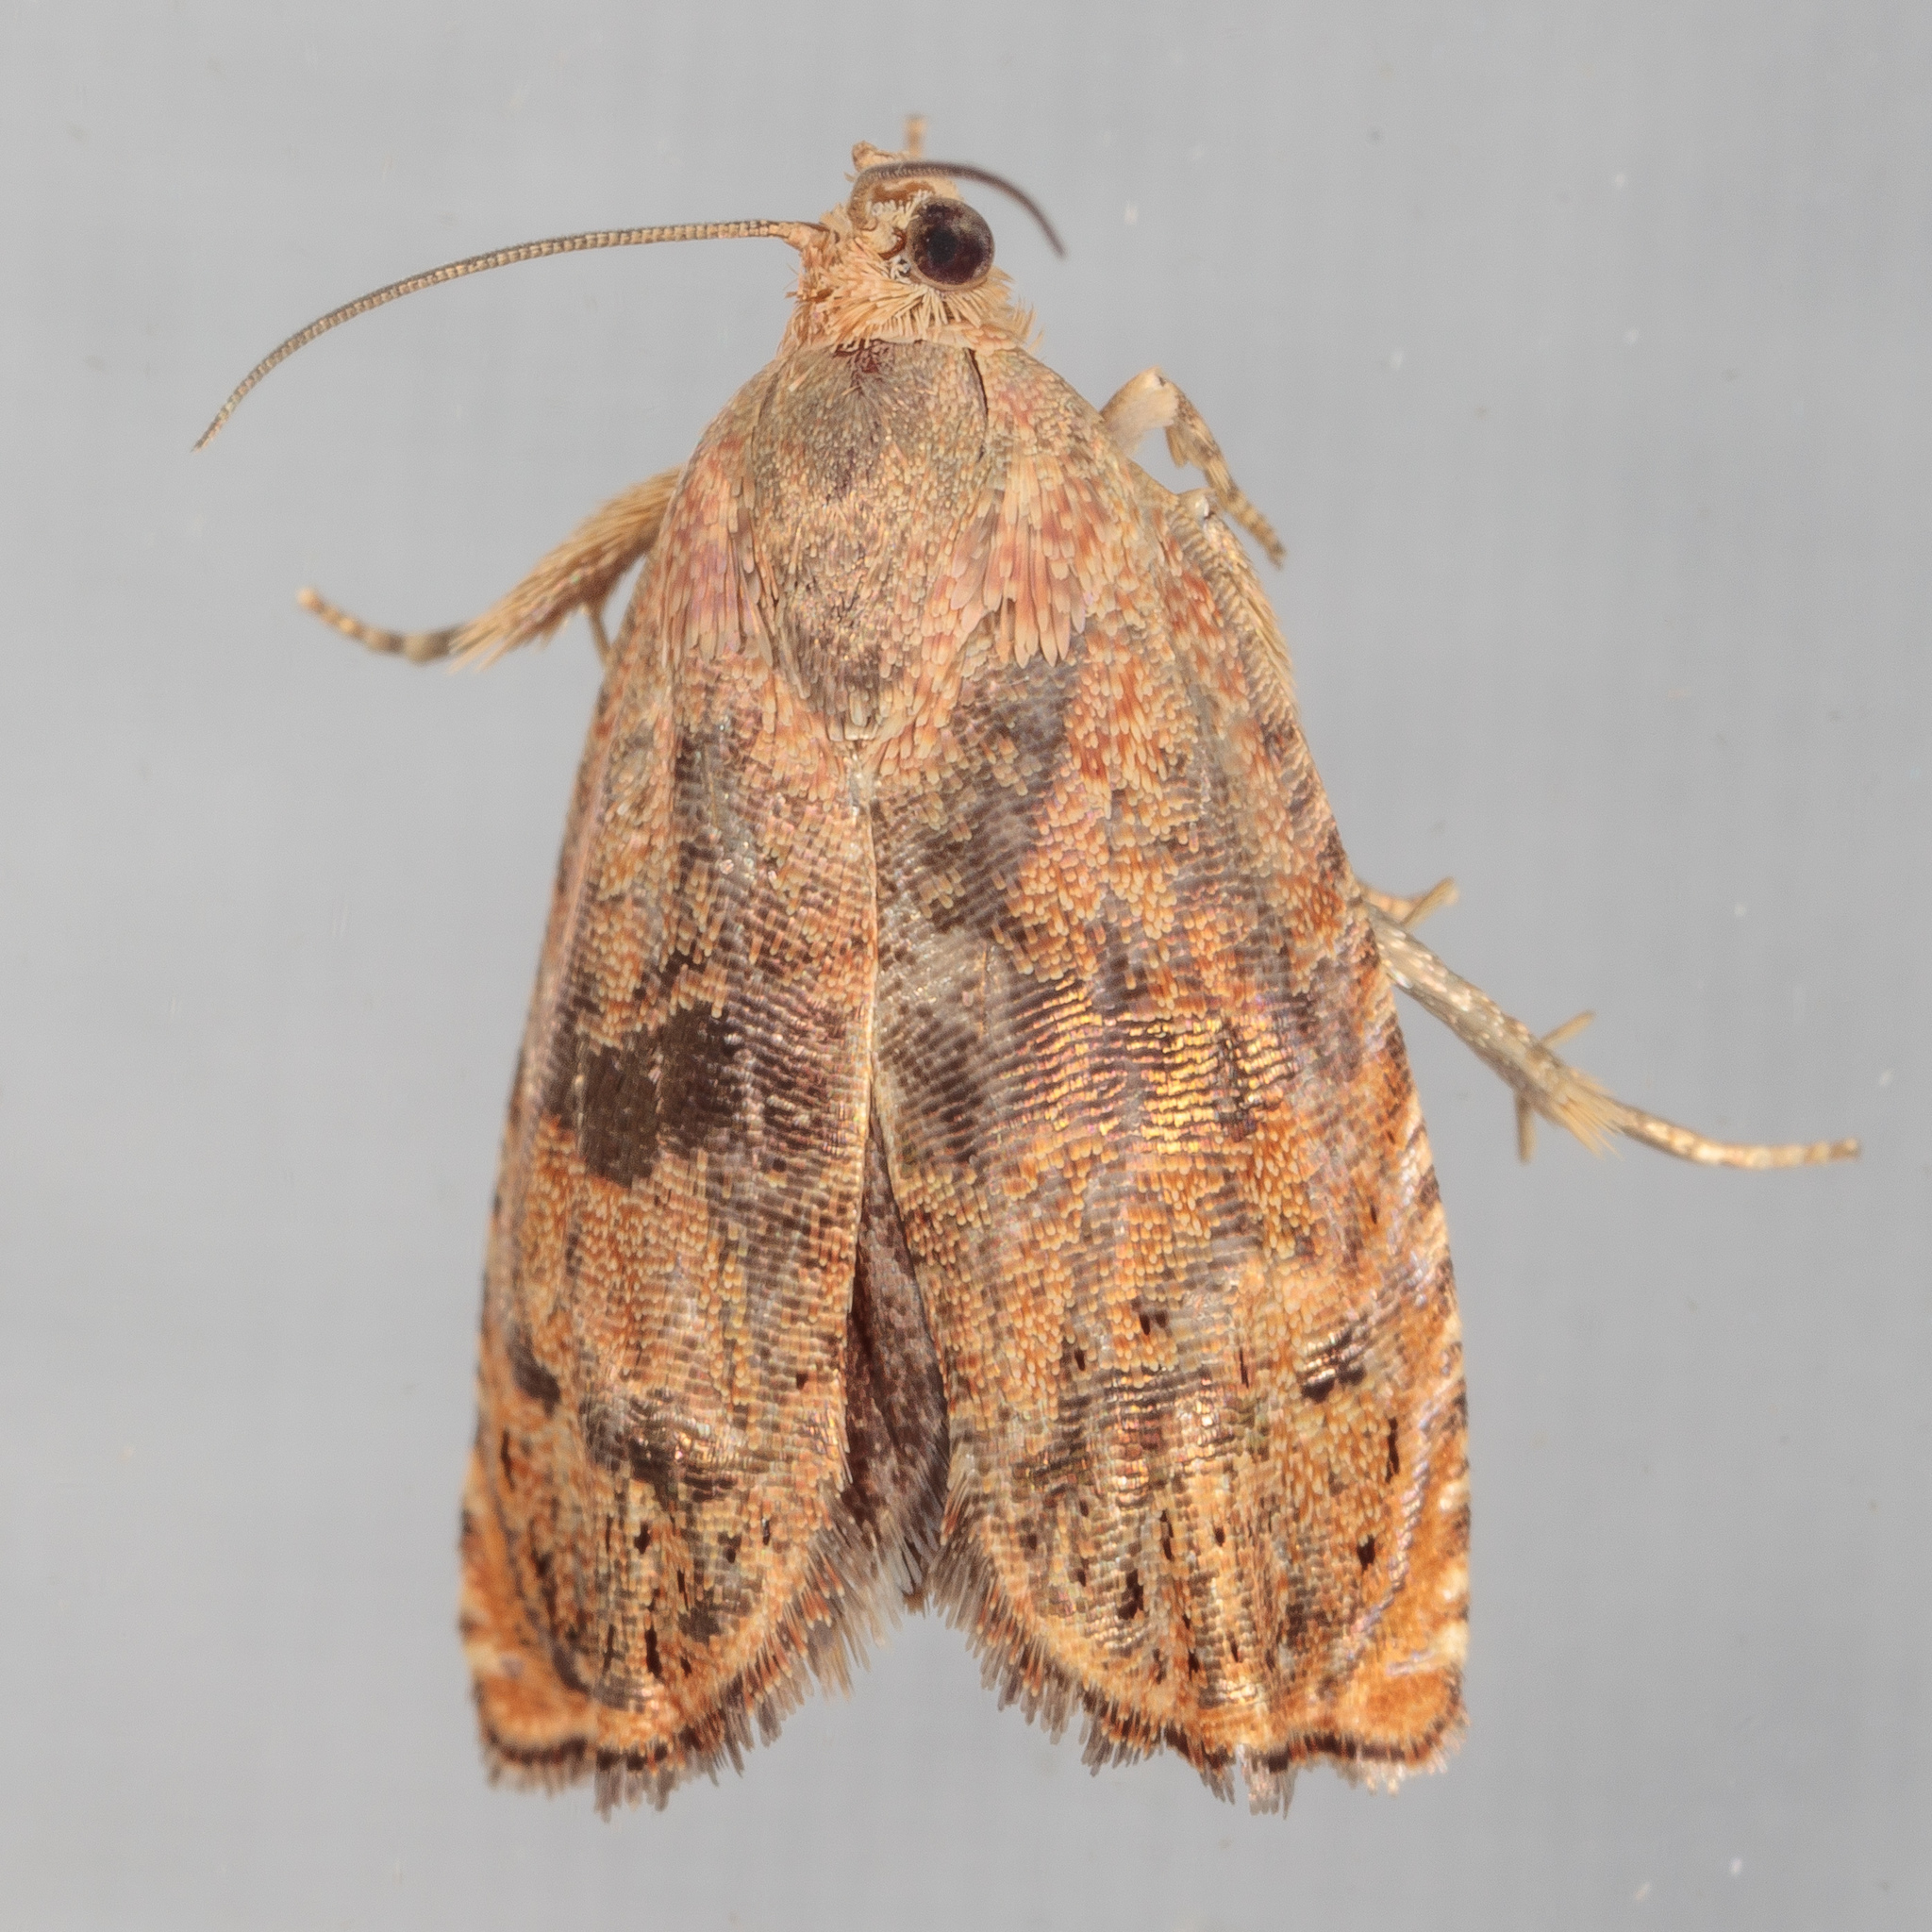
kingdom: Animalia
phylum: Arthropoda
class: Insecta
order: Lepidoptera
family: Tortricidae
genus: Cydia
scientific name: Cydia latiferreana
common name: Filbertworm moth
